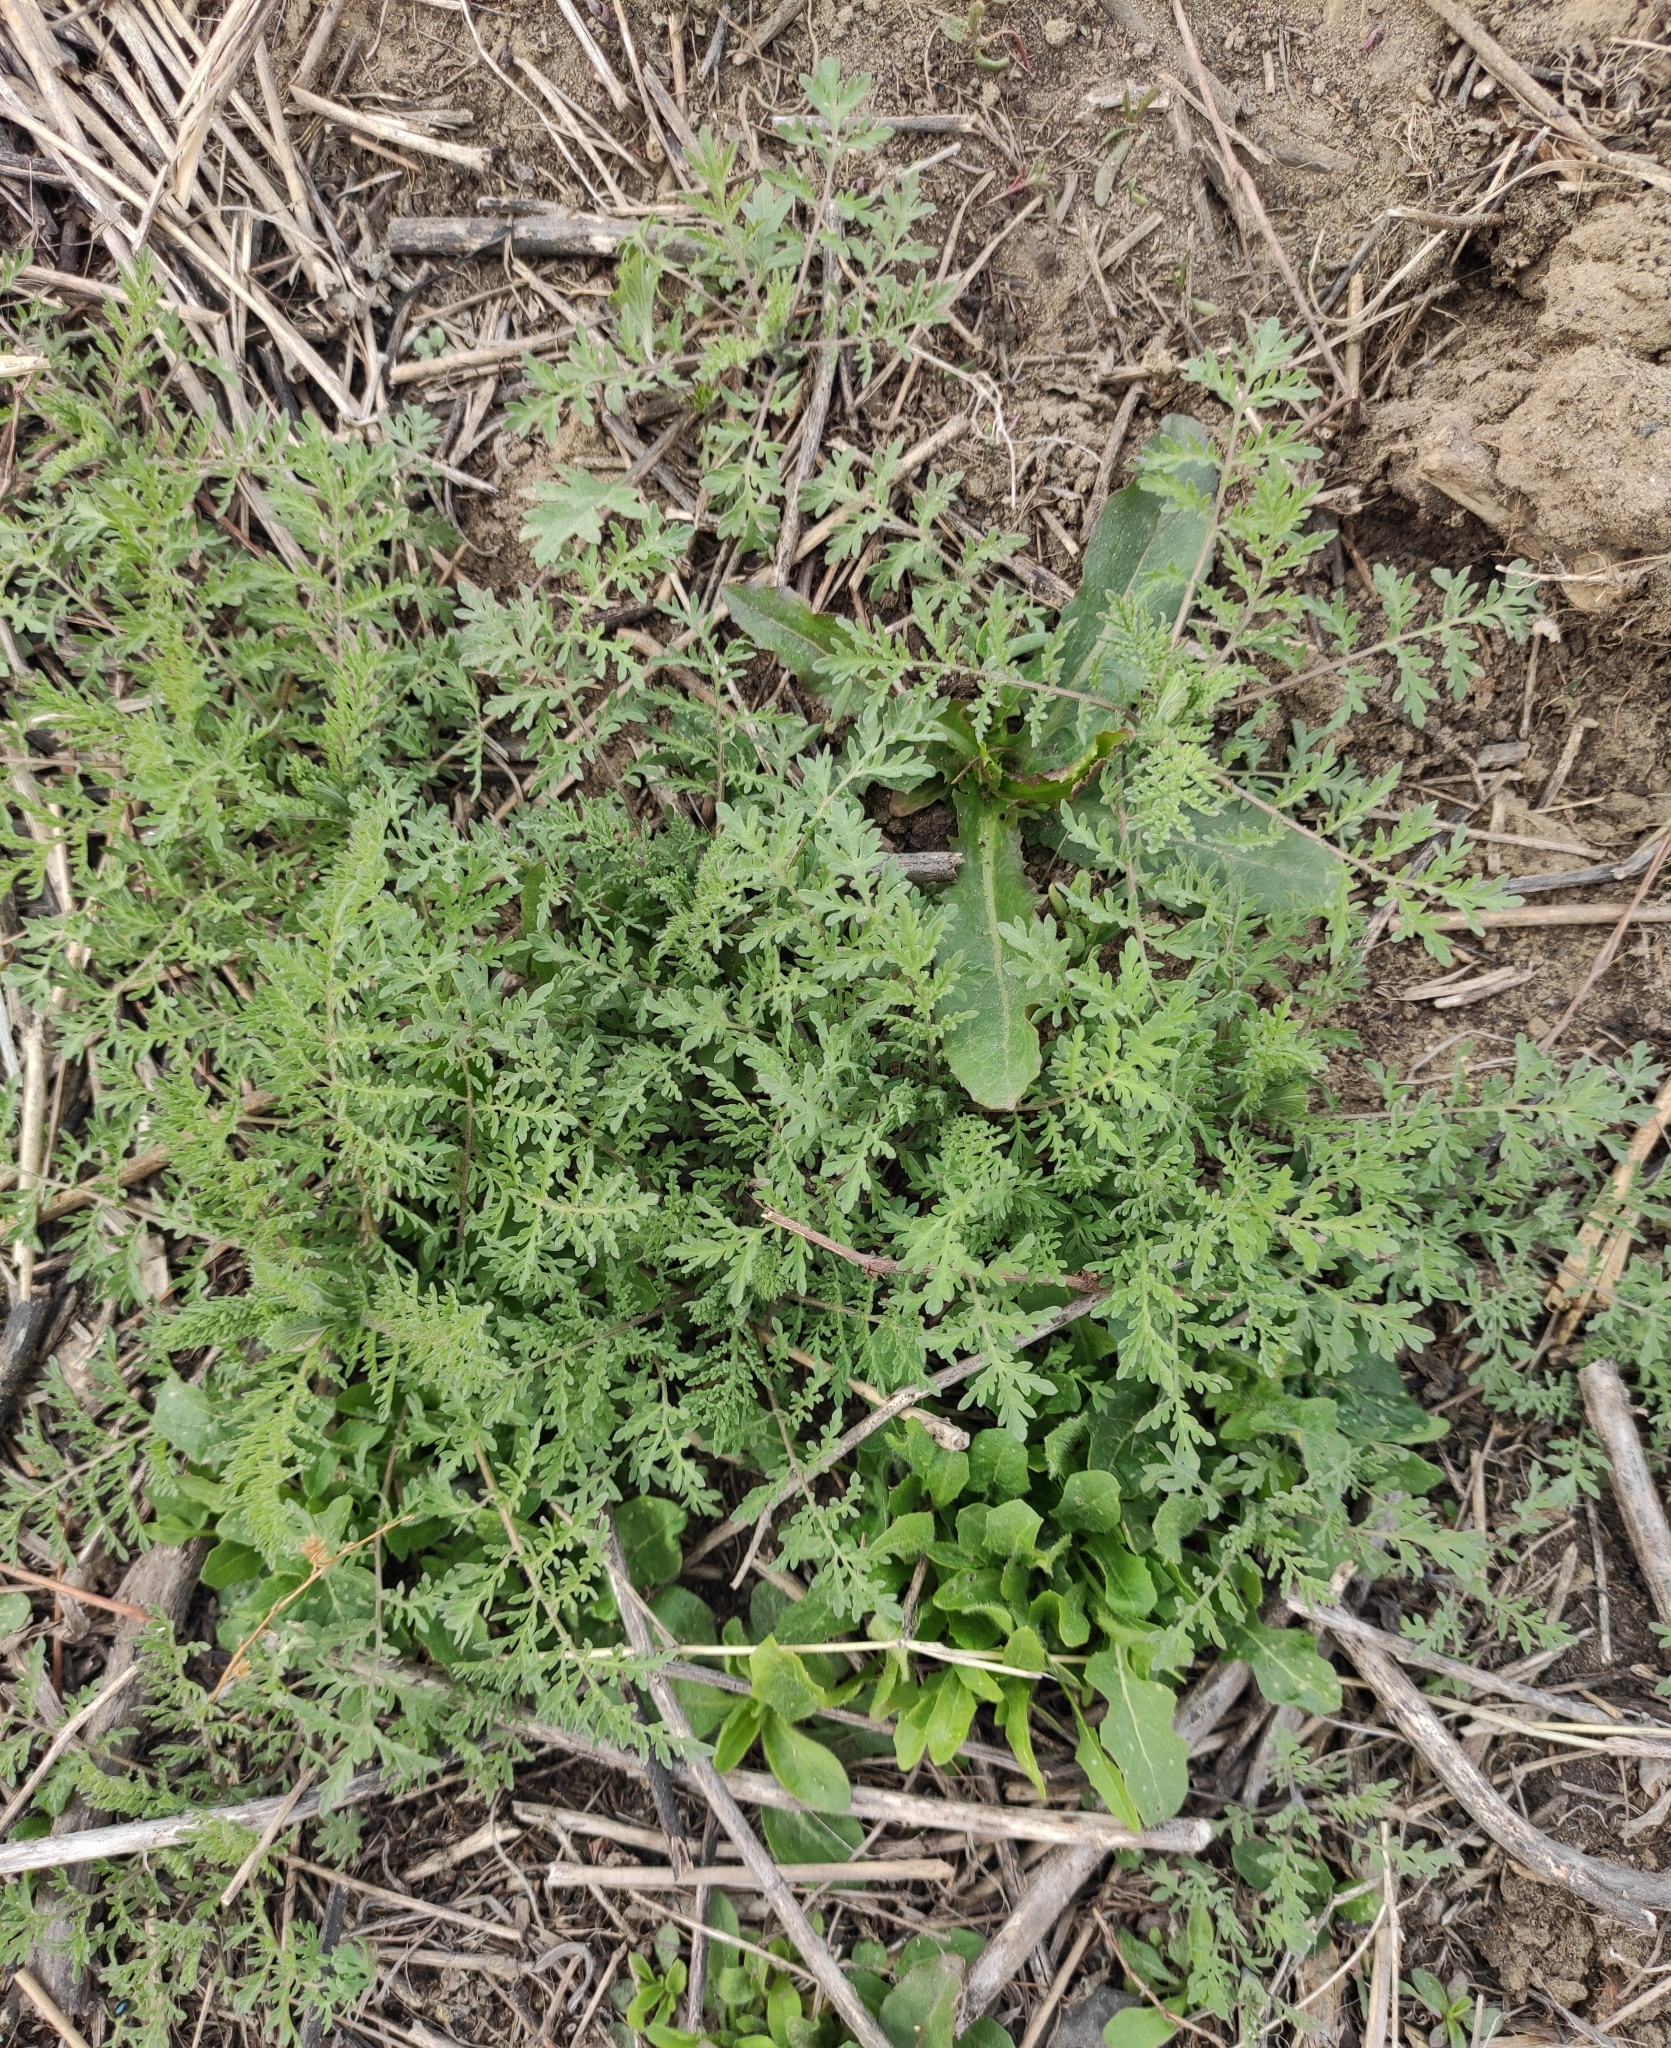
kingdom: Plantae
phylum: Tracheophyta
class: Magnoliopsida
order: Brassicales
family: Brassicaceae
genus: Descurainia
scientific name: Descurainia sophia
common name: Flixweed
